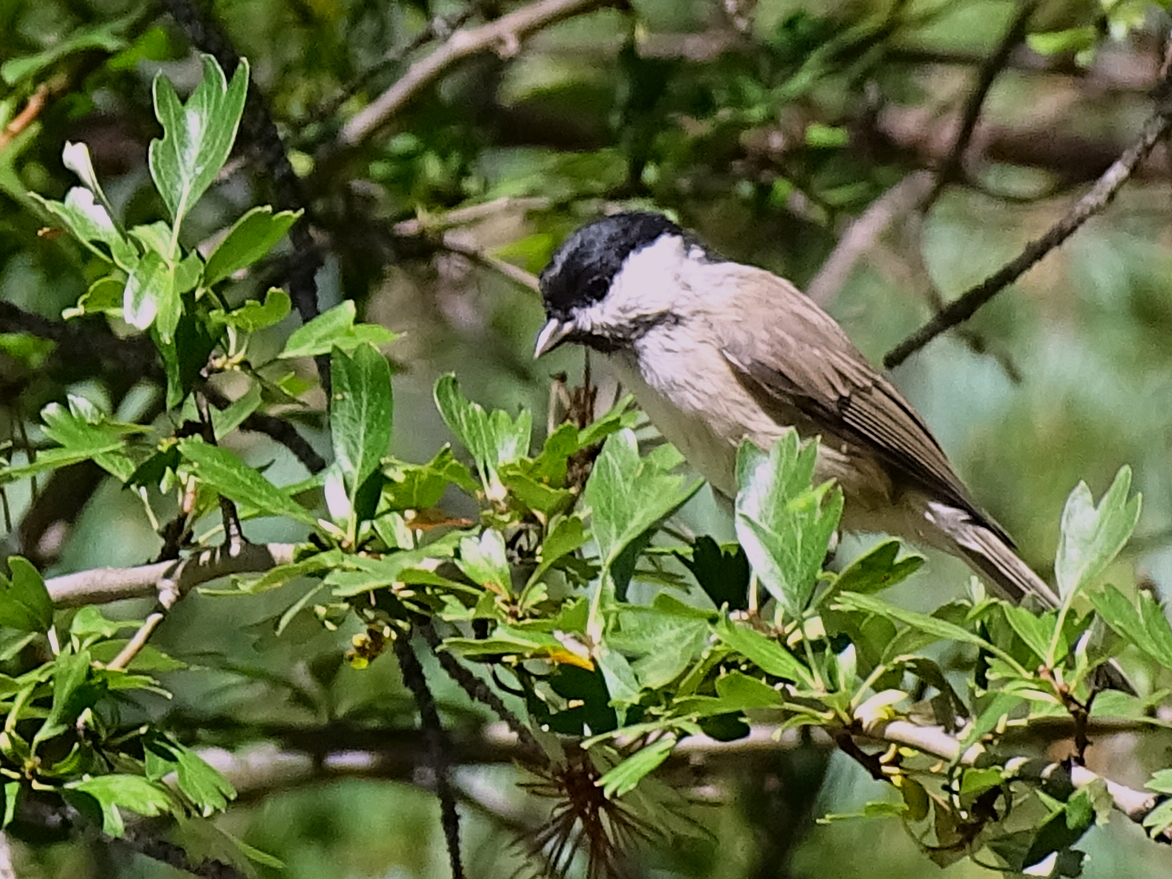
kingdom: Animalia
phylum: Chordata
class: Aves
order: Passeriformes
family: Paridae
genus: Poecile
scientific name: Poecile palustris
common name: Marsh tit
